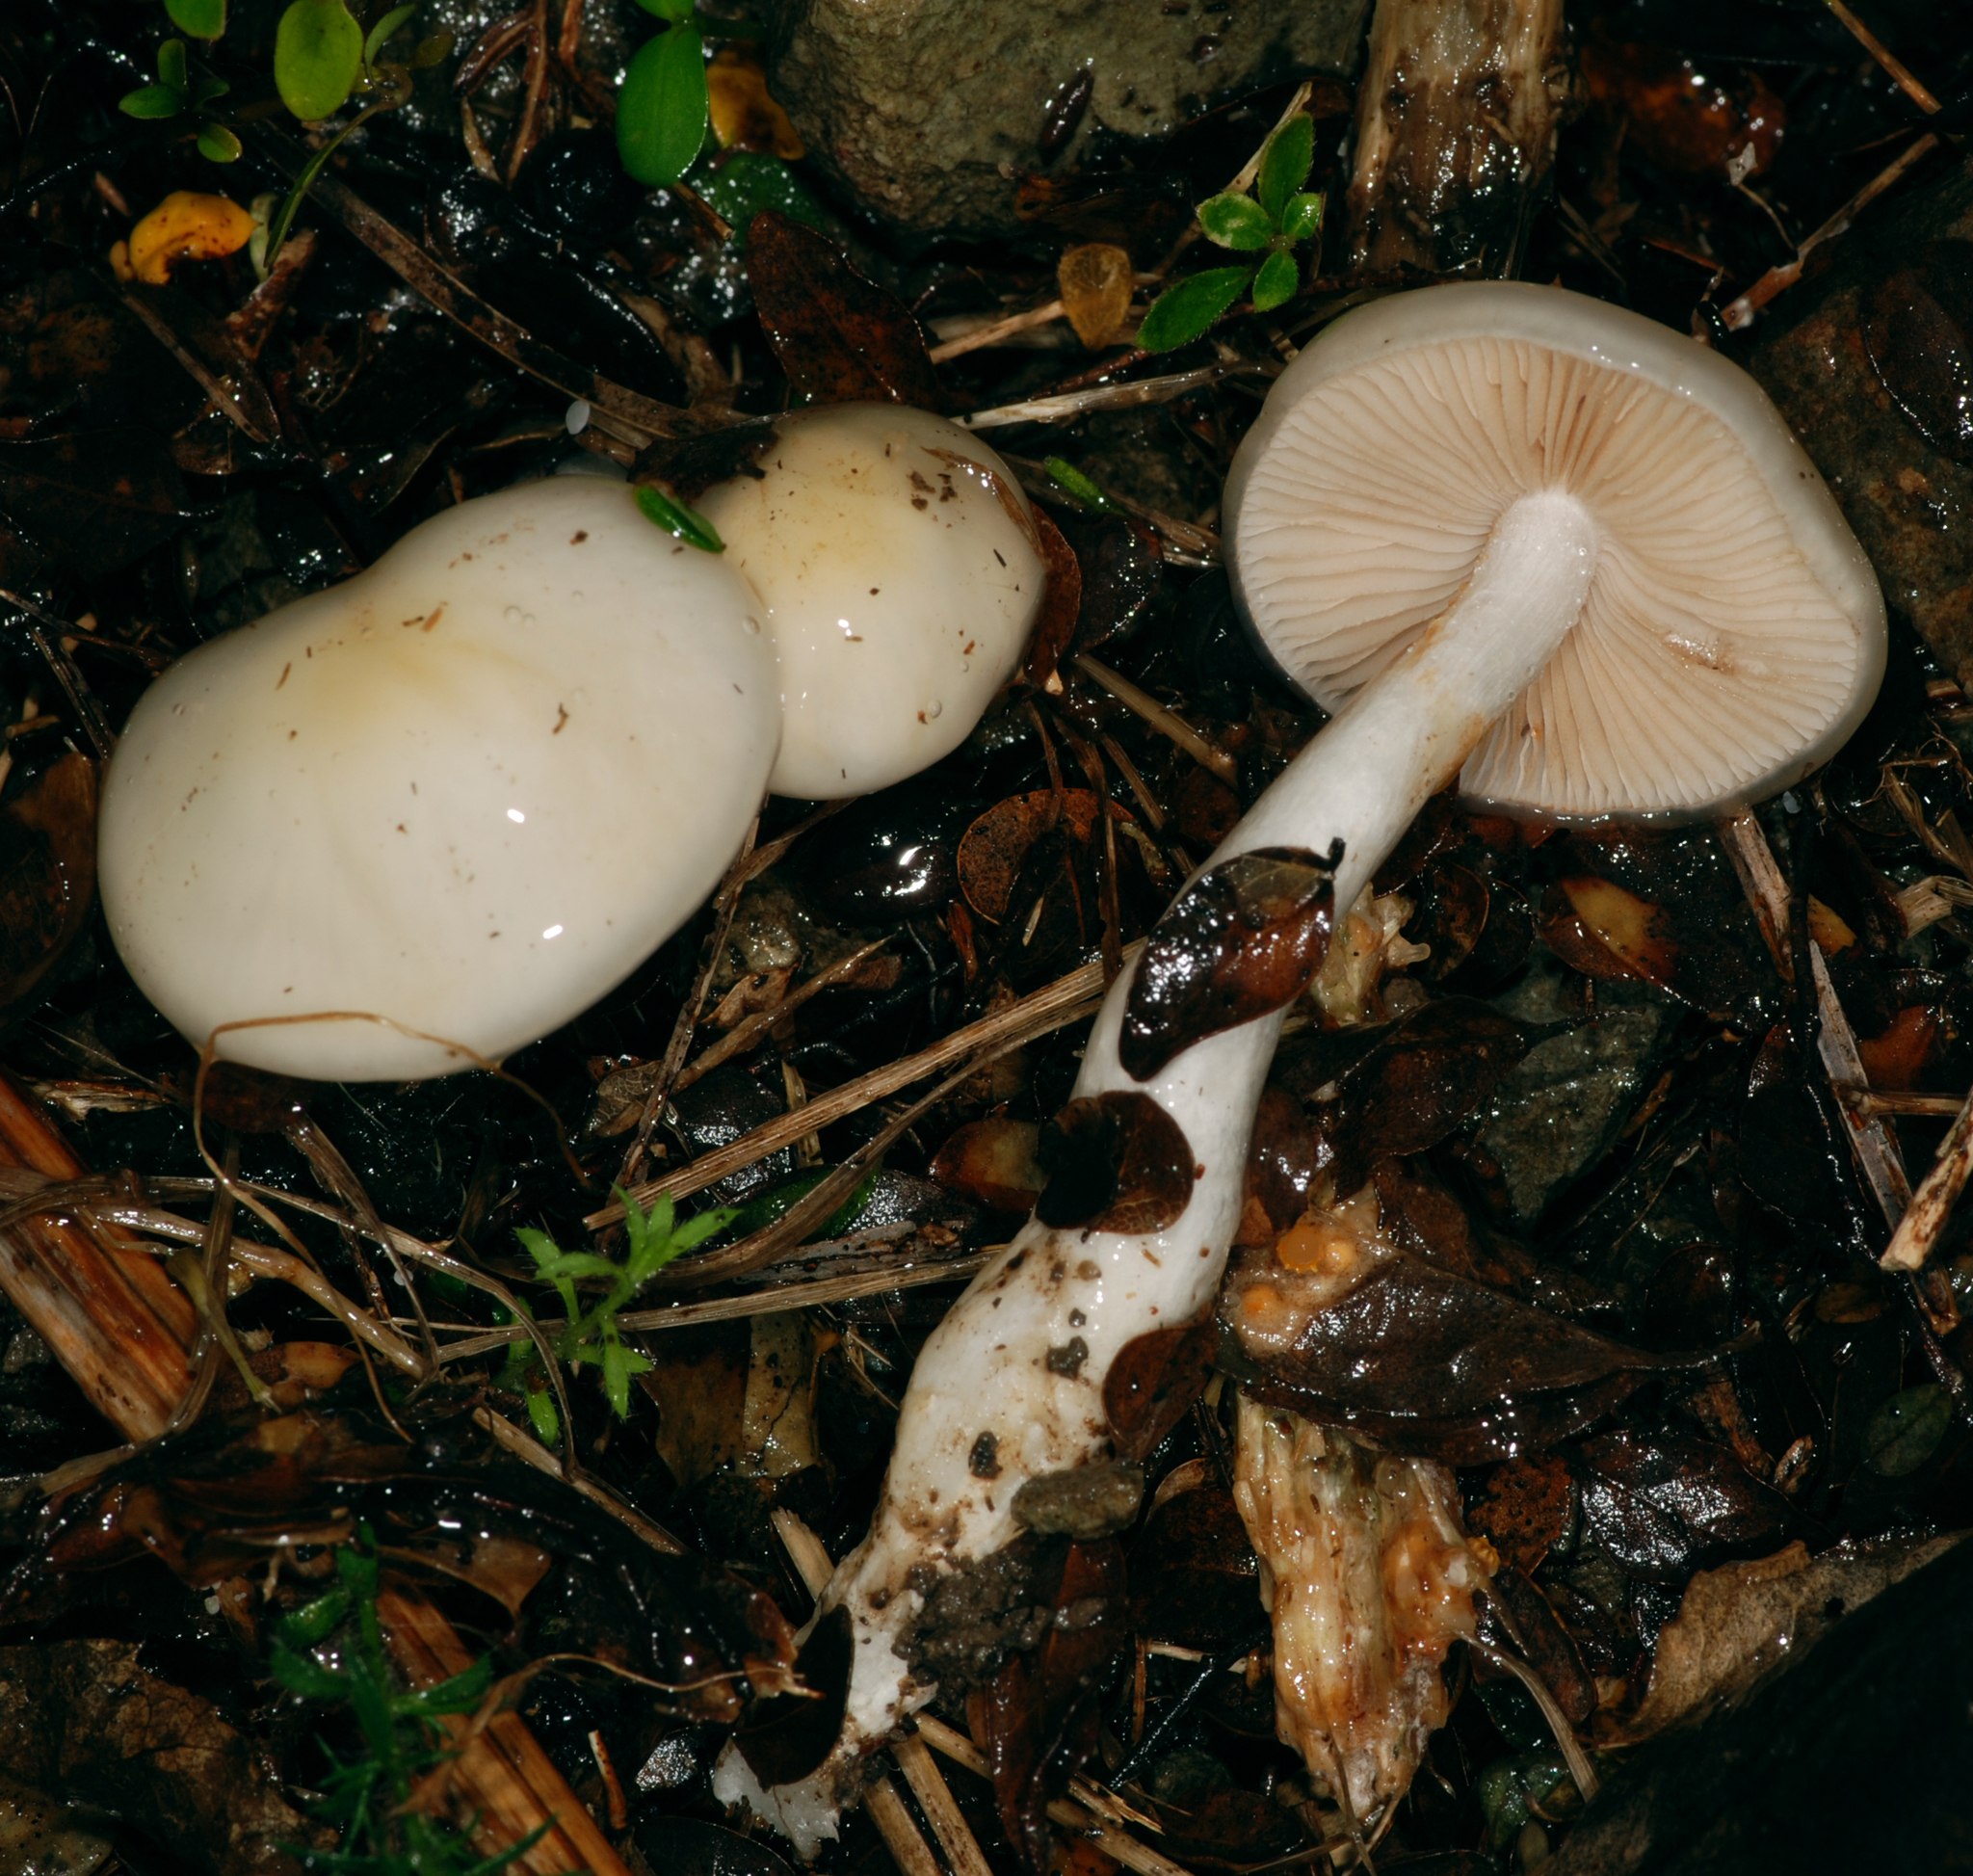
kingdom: Fungi
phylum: Basidiomycota
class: Agaricomycetes
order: Agaricales
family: Cortinariaceae
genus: Thaxterogaster
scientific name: Thaxterogaster olorinatus
